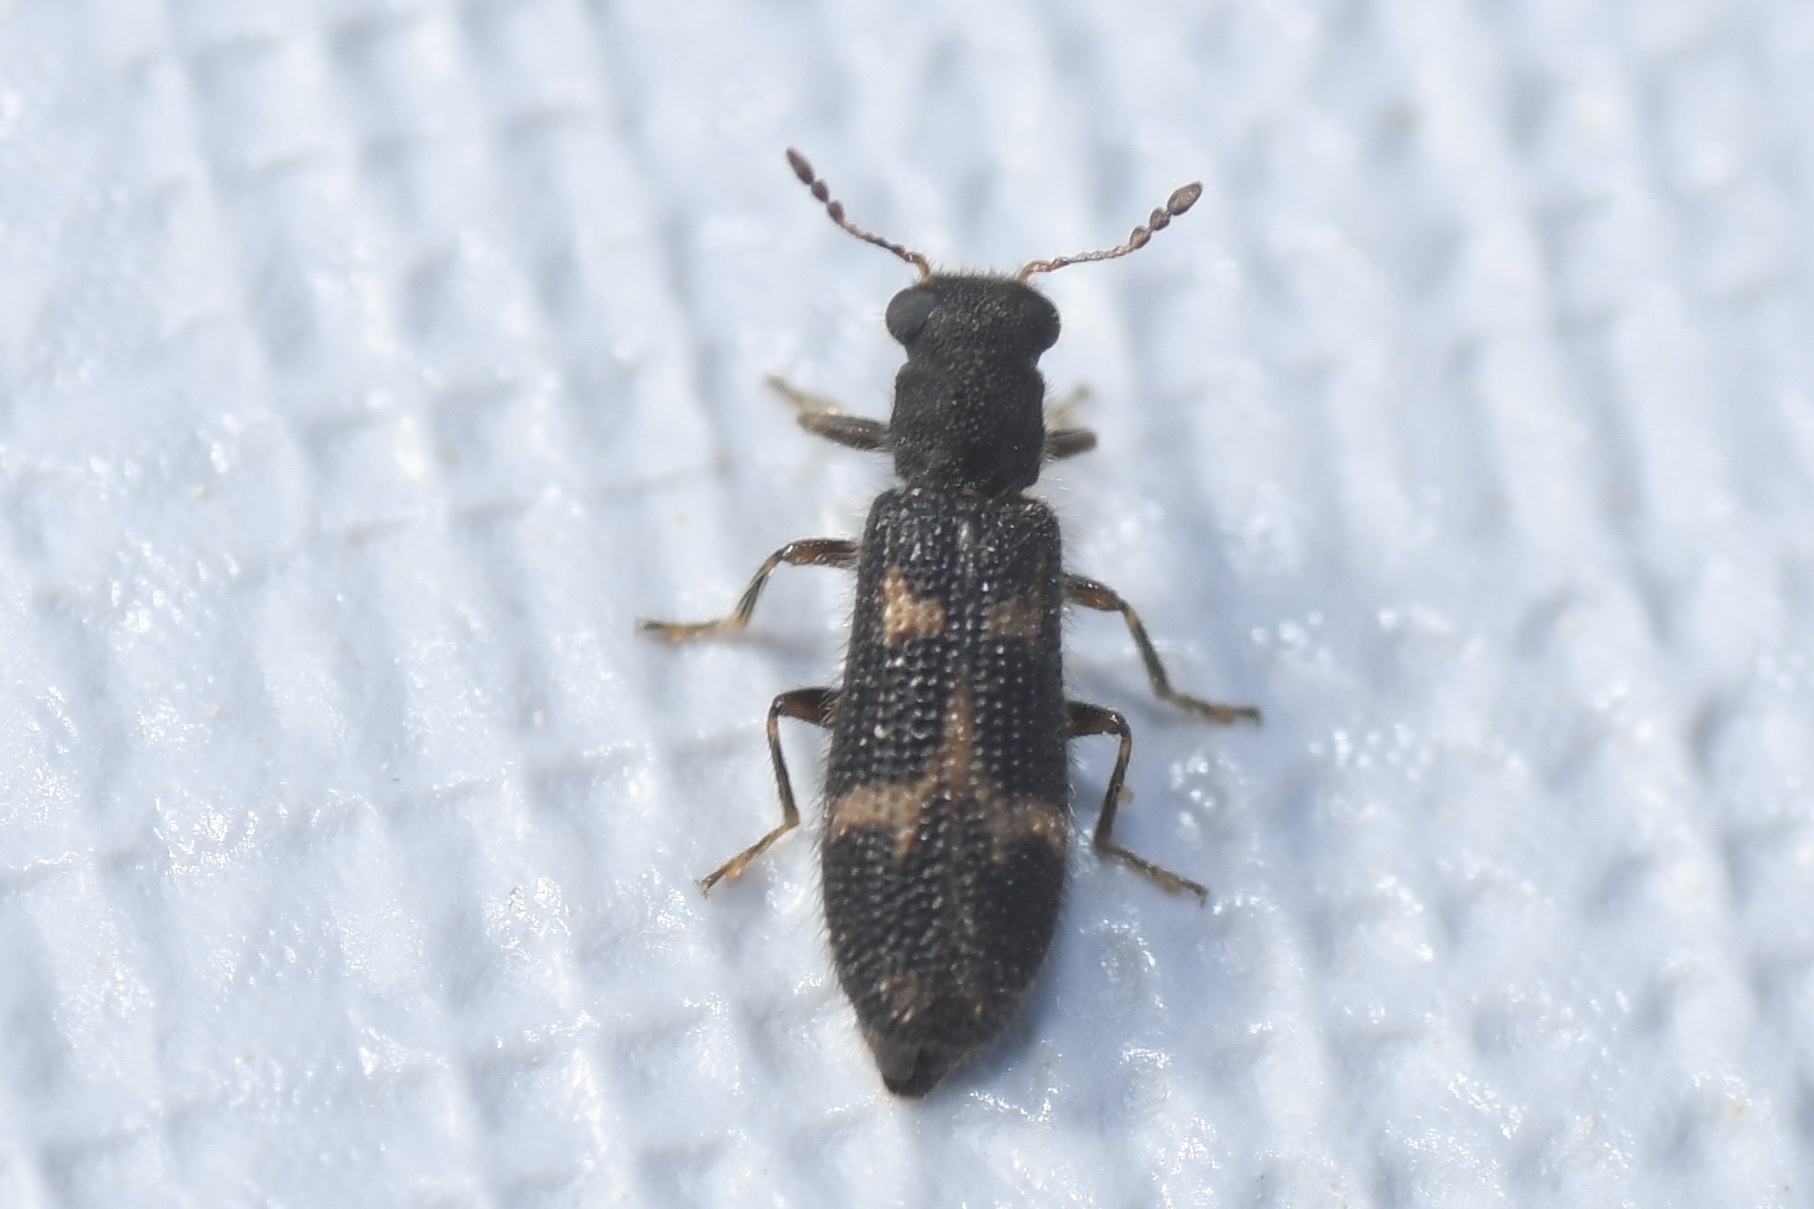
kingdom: Animalia
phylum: Arthropoda
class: Insecta
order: Coleoptera
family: Cleridae
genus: Madoniella
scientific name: Madoniella dislocata
